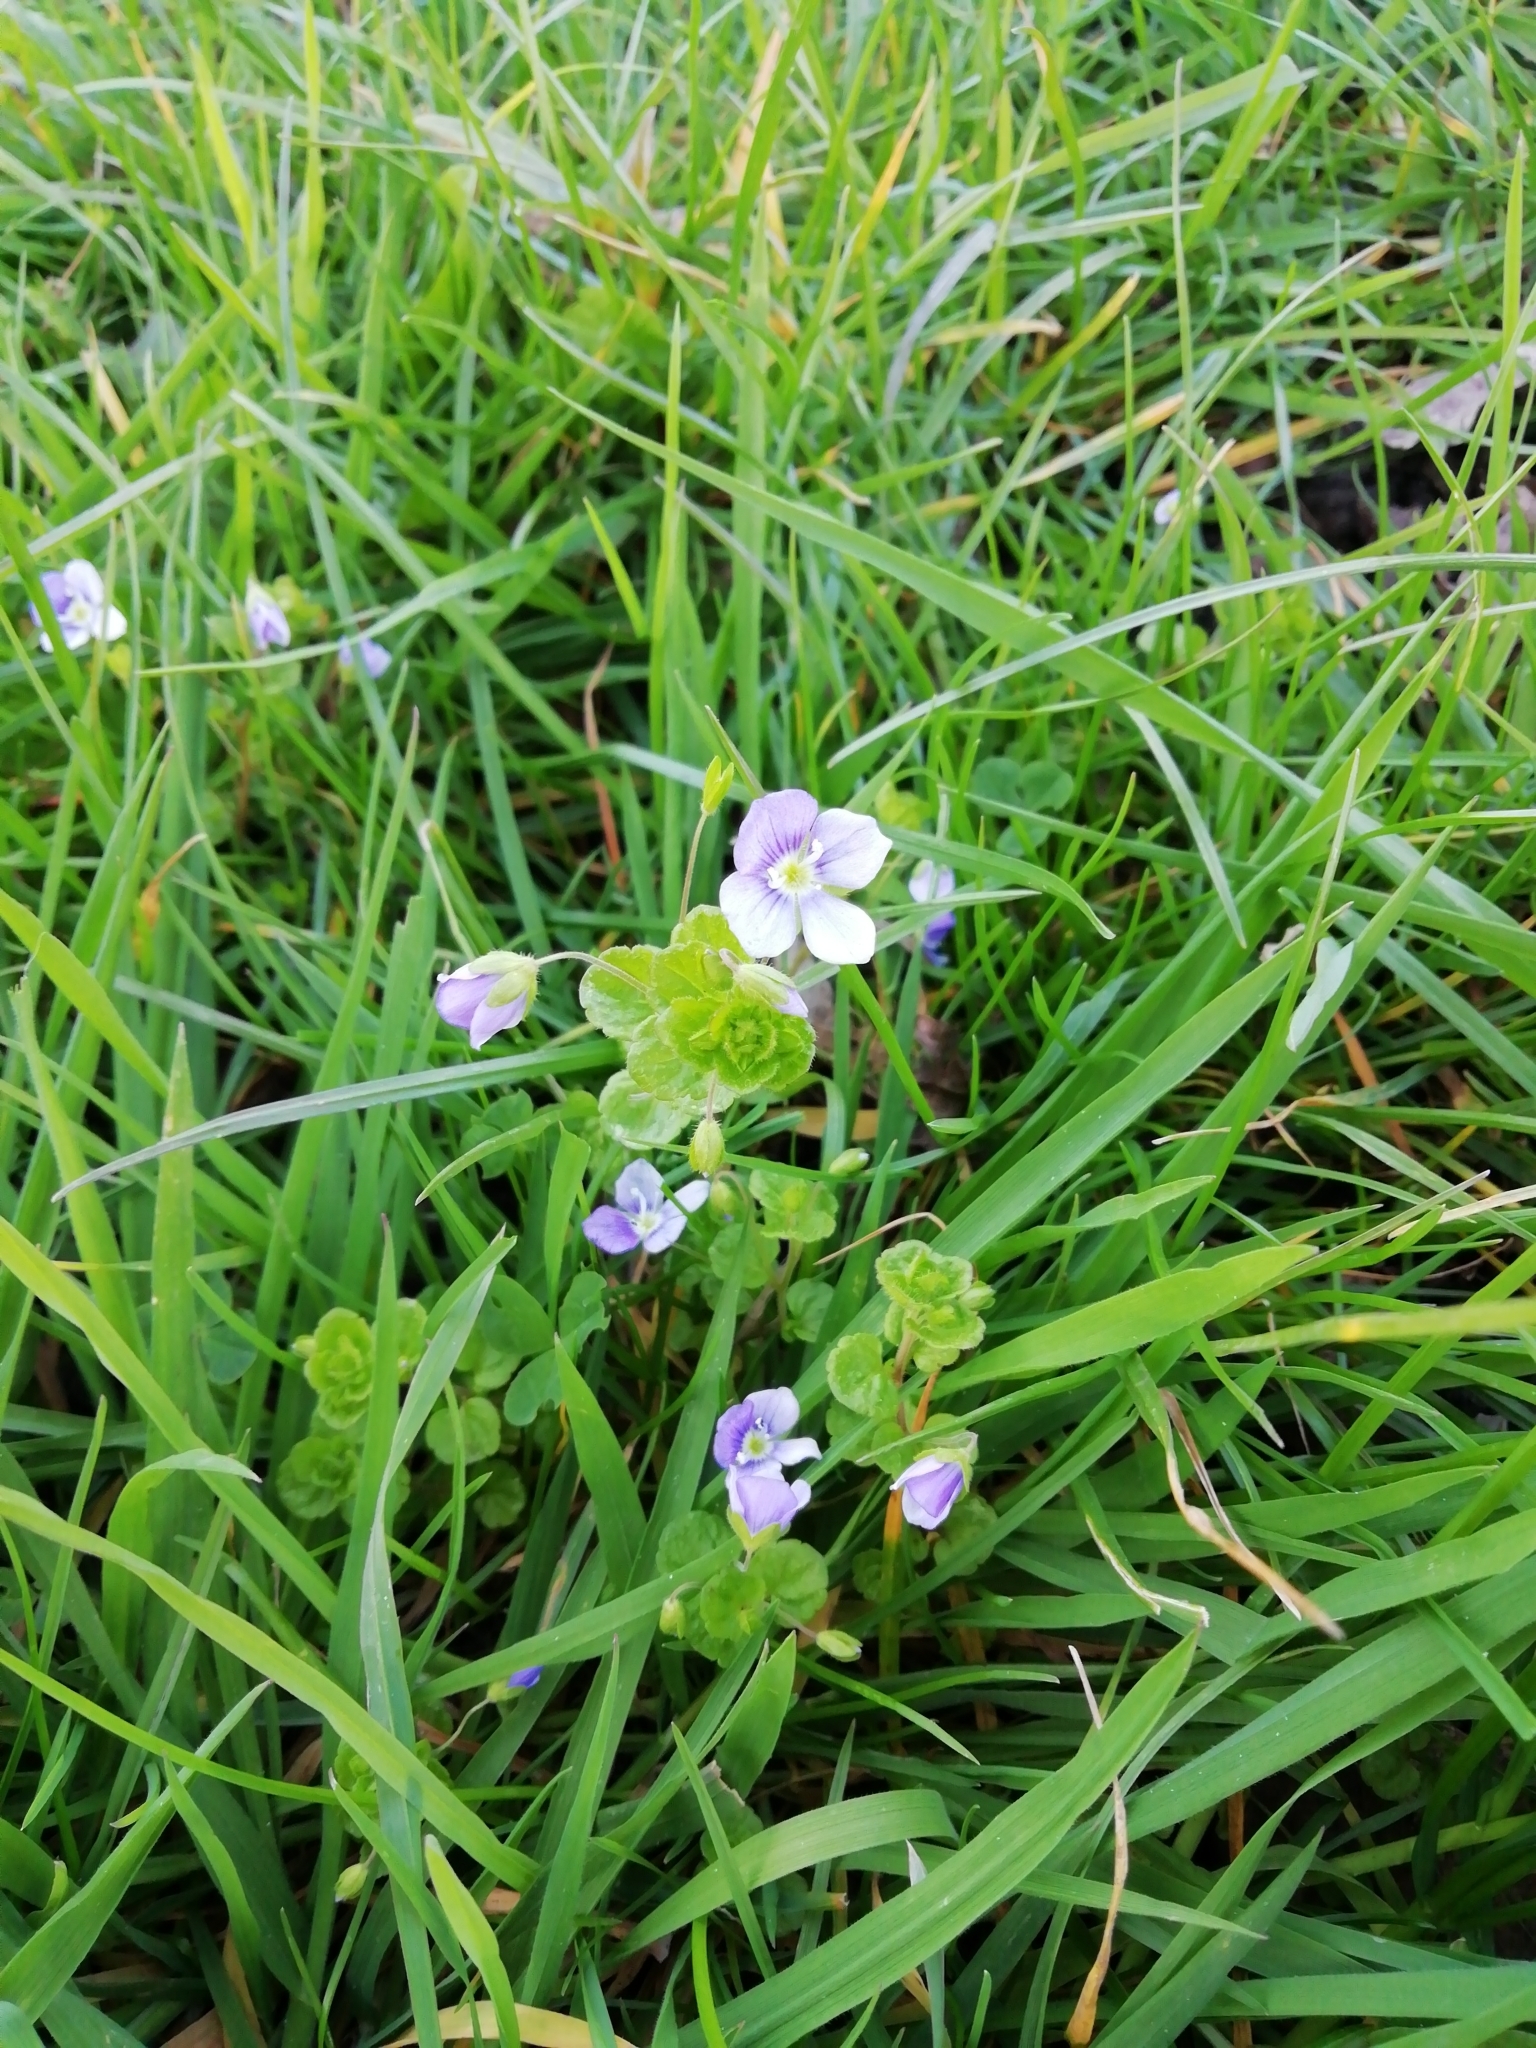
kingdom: Plantae
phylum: Tracheophyta
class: Magnoliopsida
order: Lamiales
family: Plantaginaceae
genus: Veronica
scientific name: Veronica filiformis
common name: Slender speedwell
